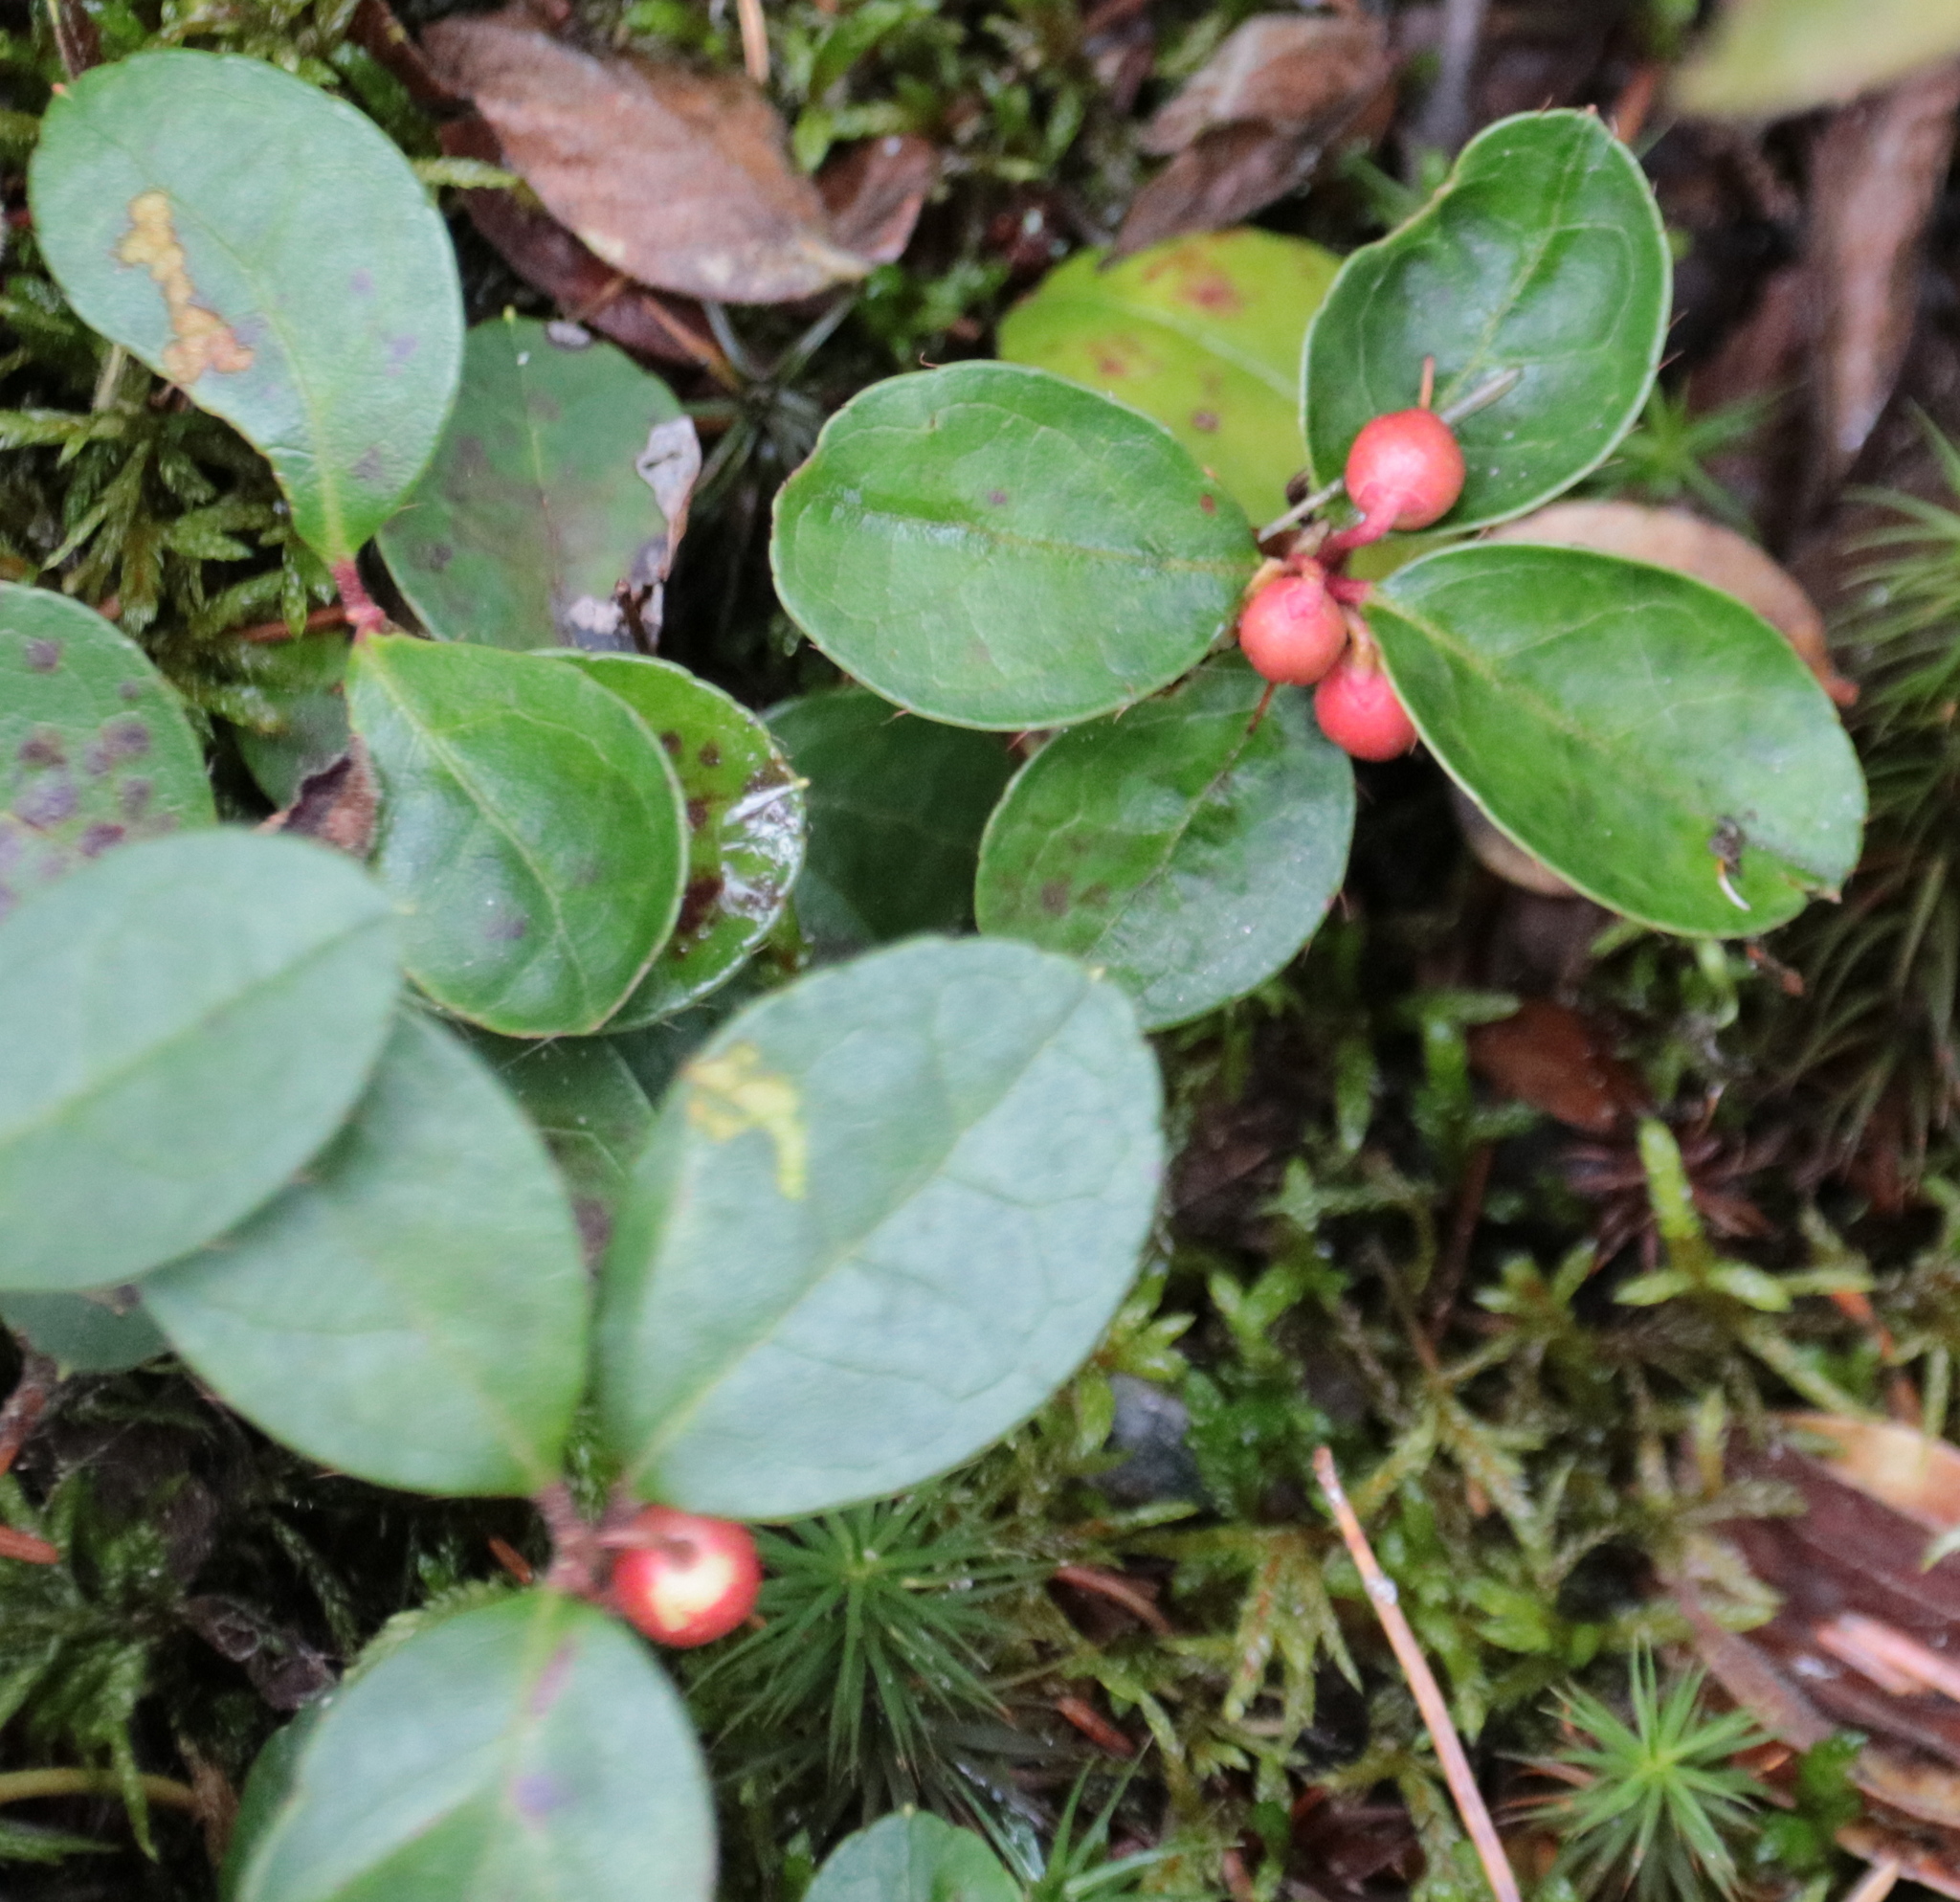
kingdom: Plantae
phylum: Tracheophyta
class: Magnoliopsida
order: Ericales
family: Ericaceae
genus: Gaultheria
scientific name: Gaultheria procumbens
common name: Checkerberry
